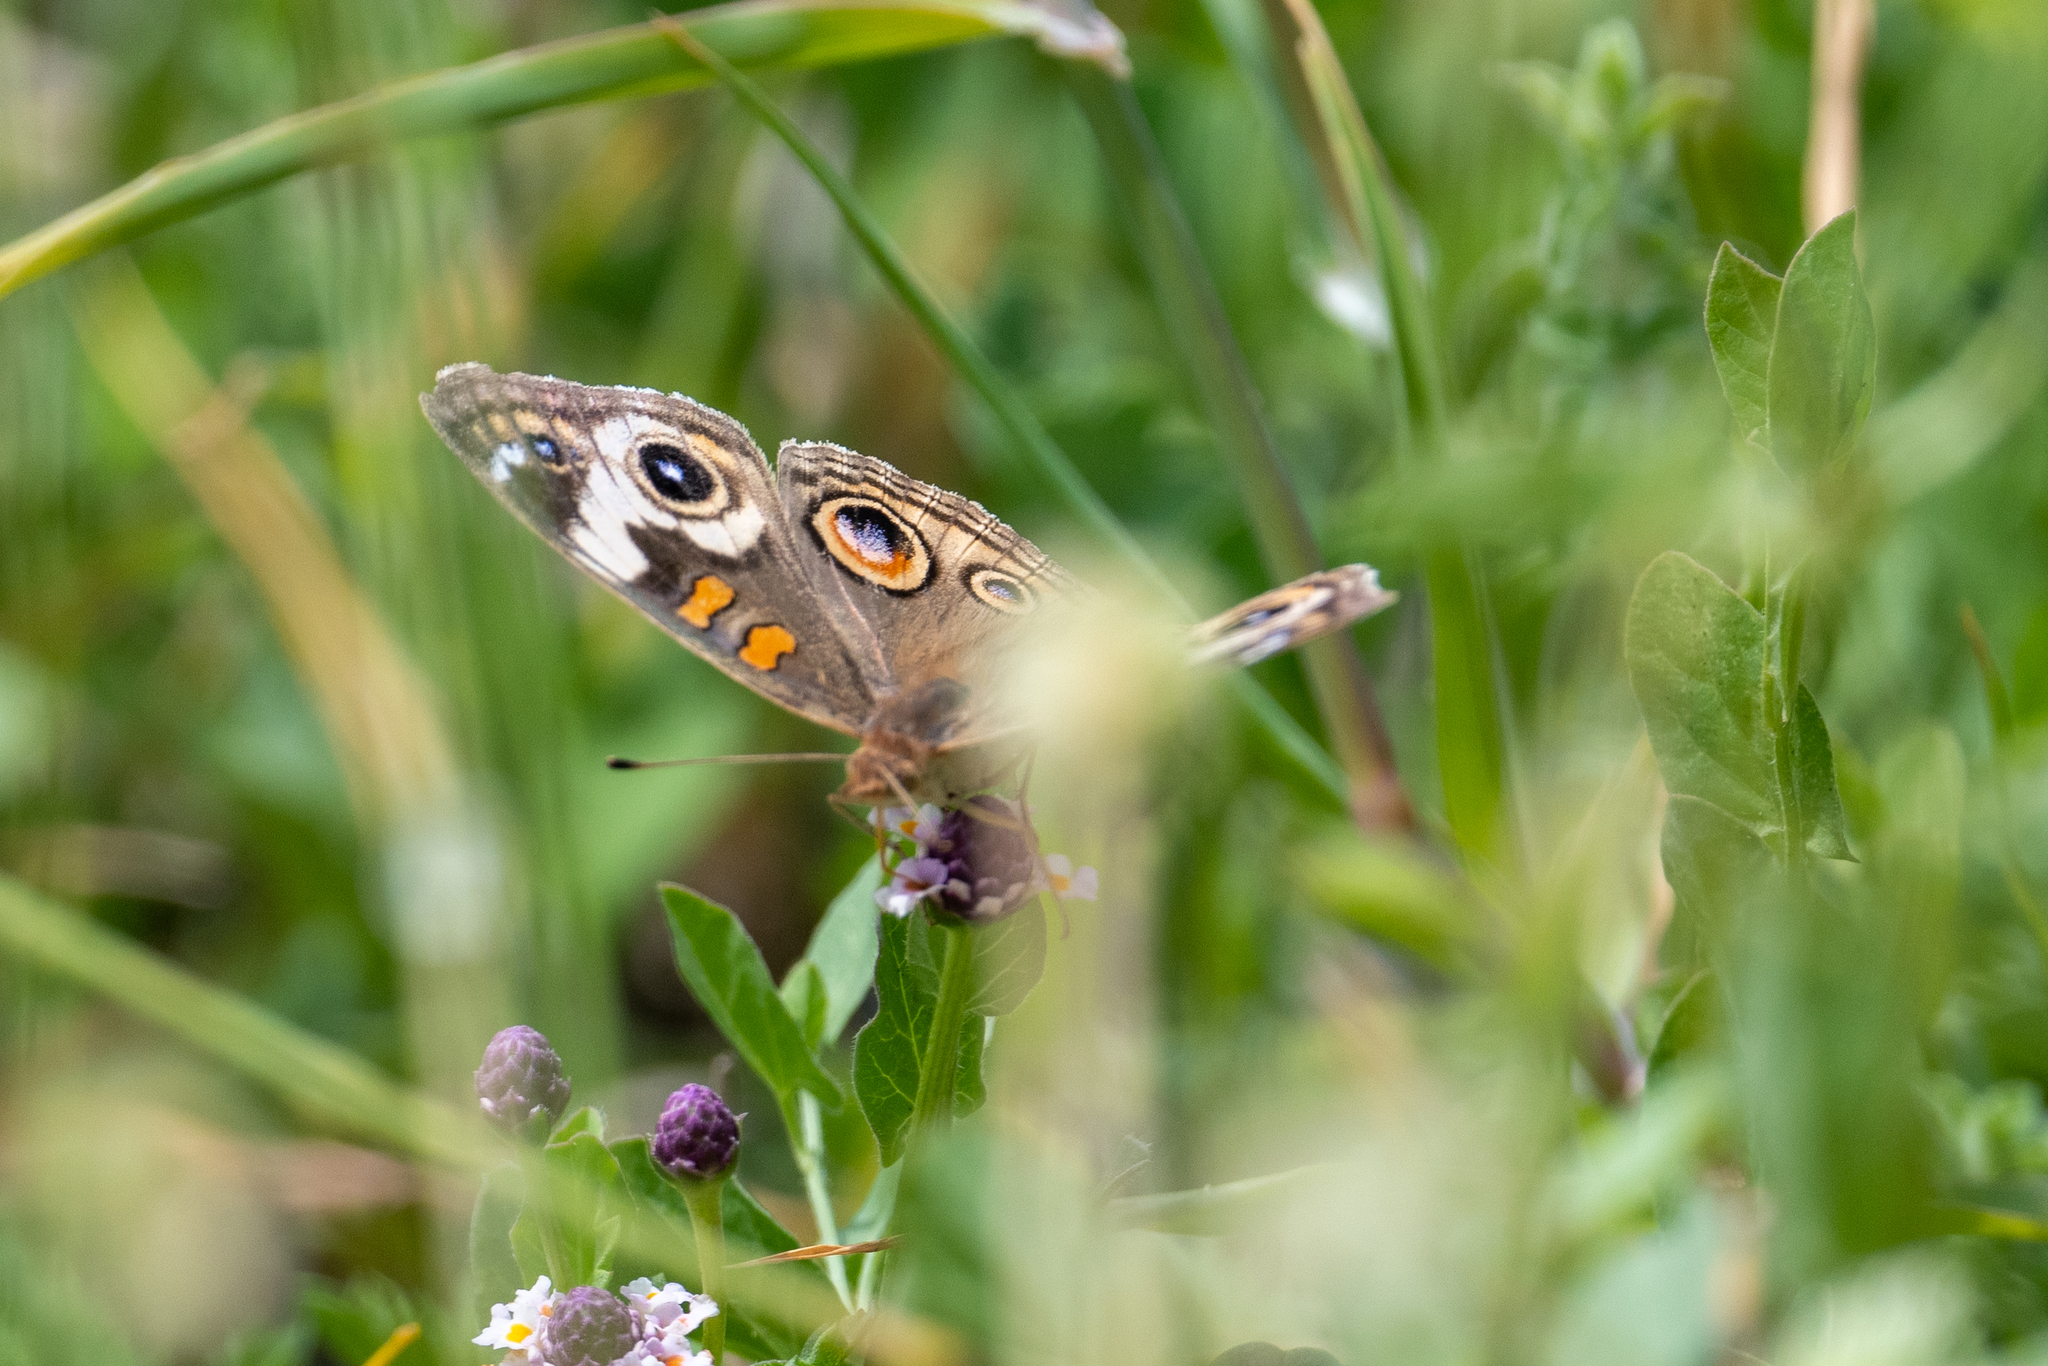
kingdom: Animalia
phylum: Arthropoda
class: Insecta
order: Lepidoptera
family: Nymphalidae
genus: Junonia
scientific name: Junonia grisea
